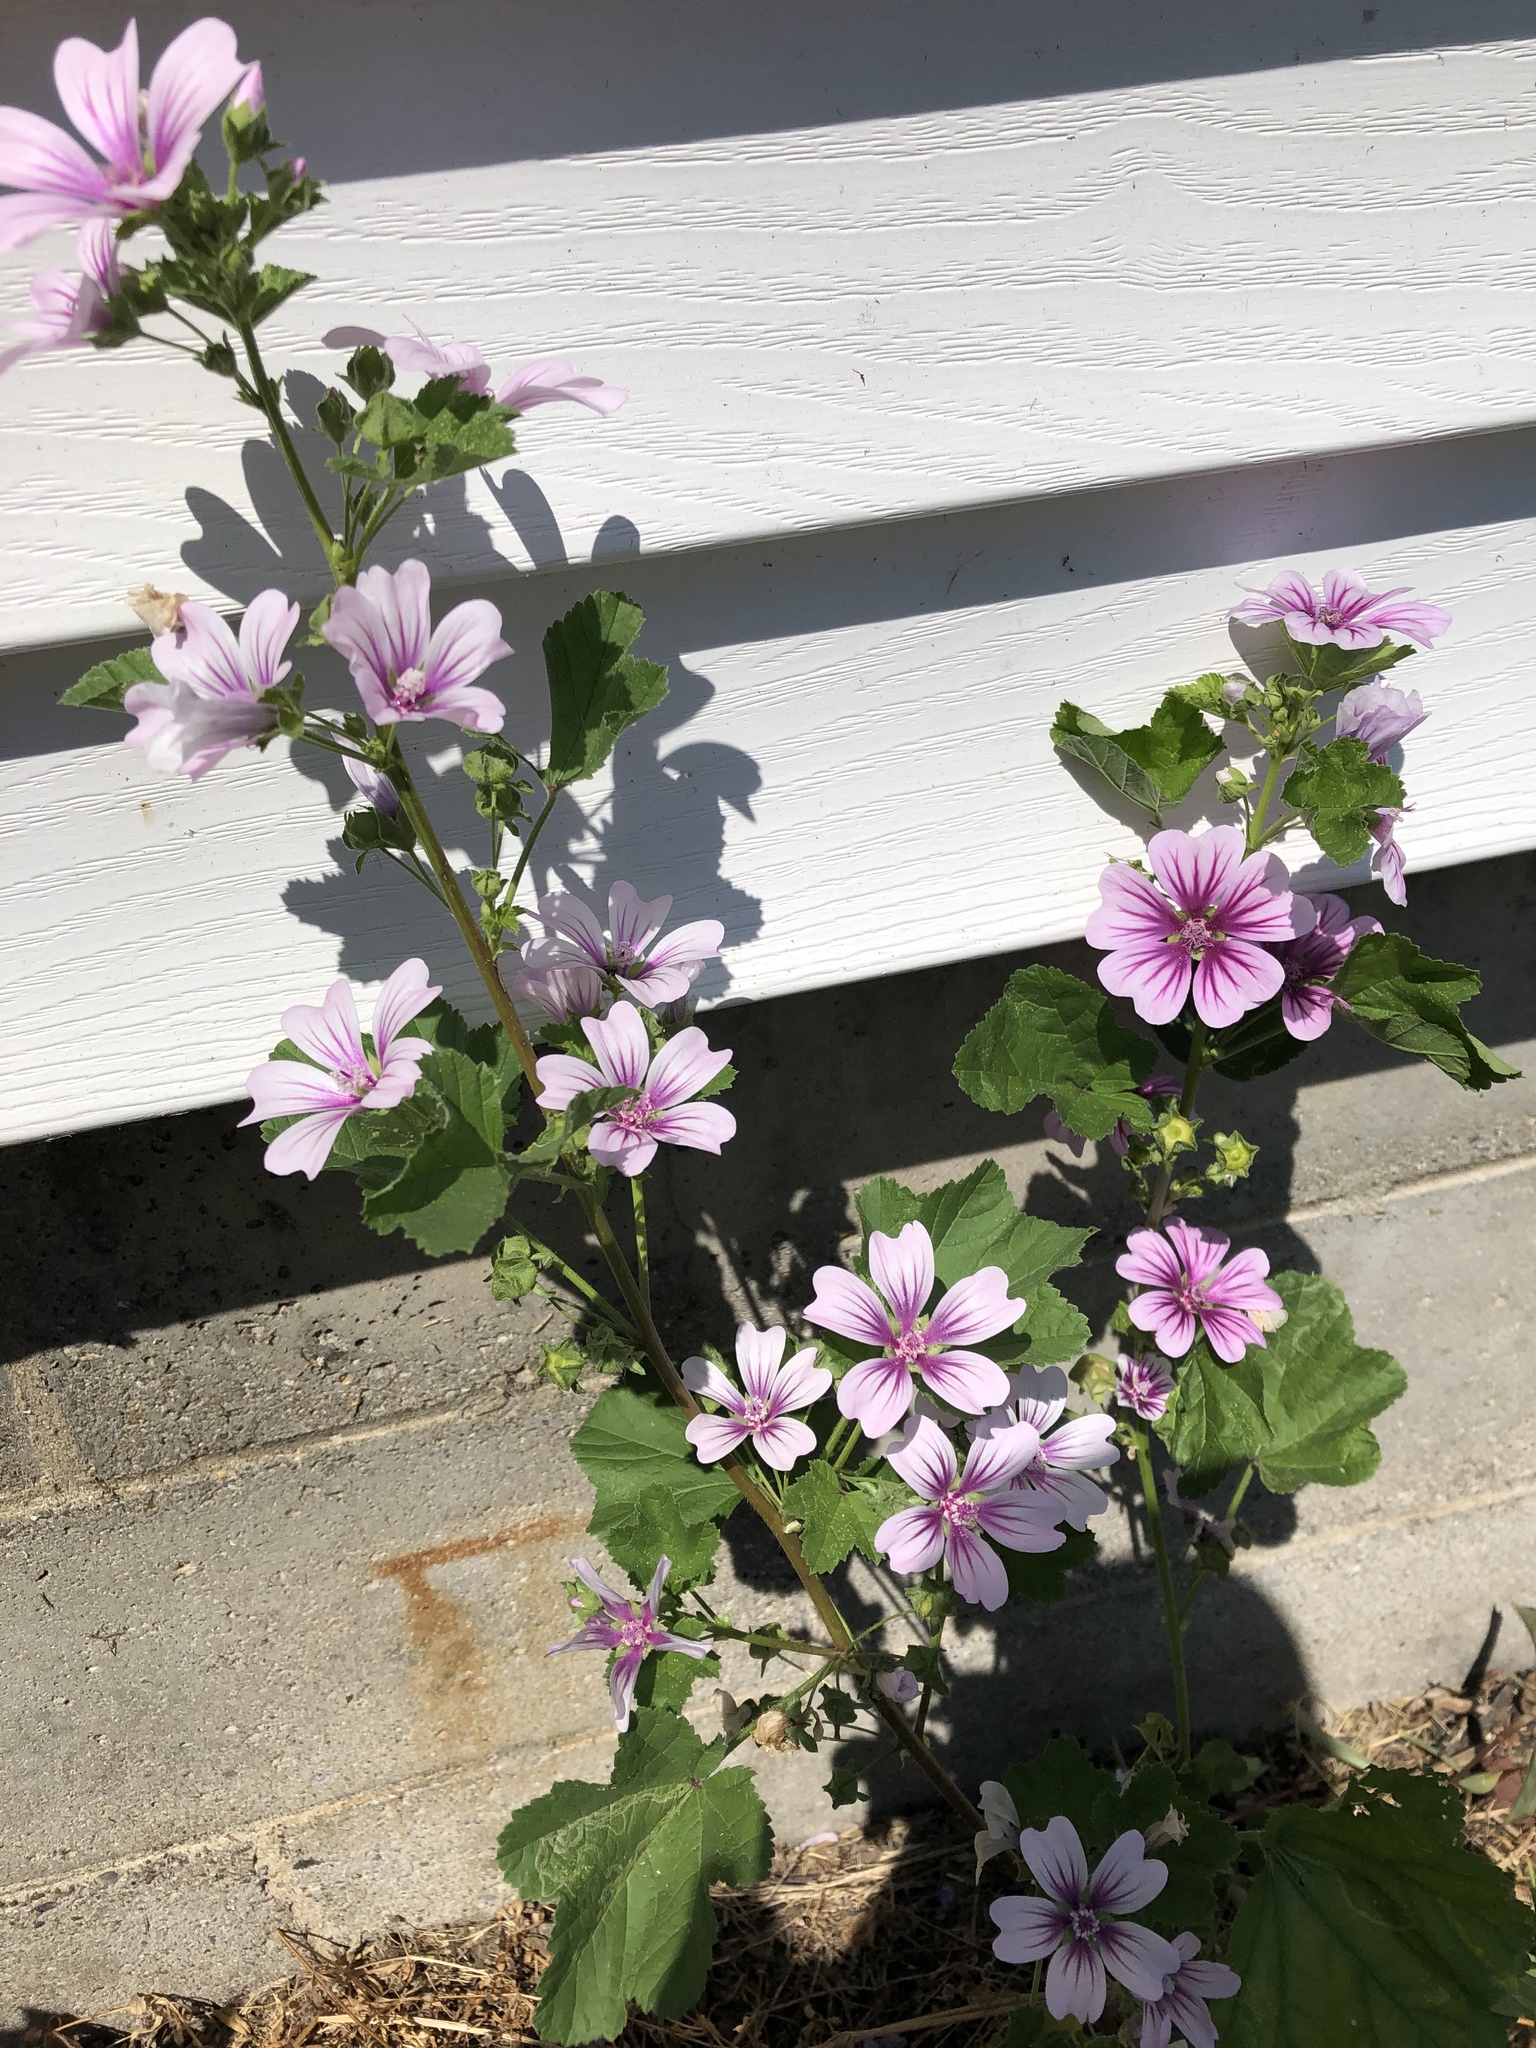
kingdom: Plantae
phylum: Tracheophyta
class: Magnoliopsida
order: Malvales
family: Malvaceae
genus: Malva
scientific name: Malva sylvestris
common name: Common mallow
